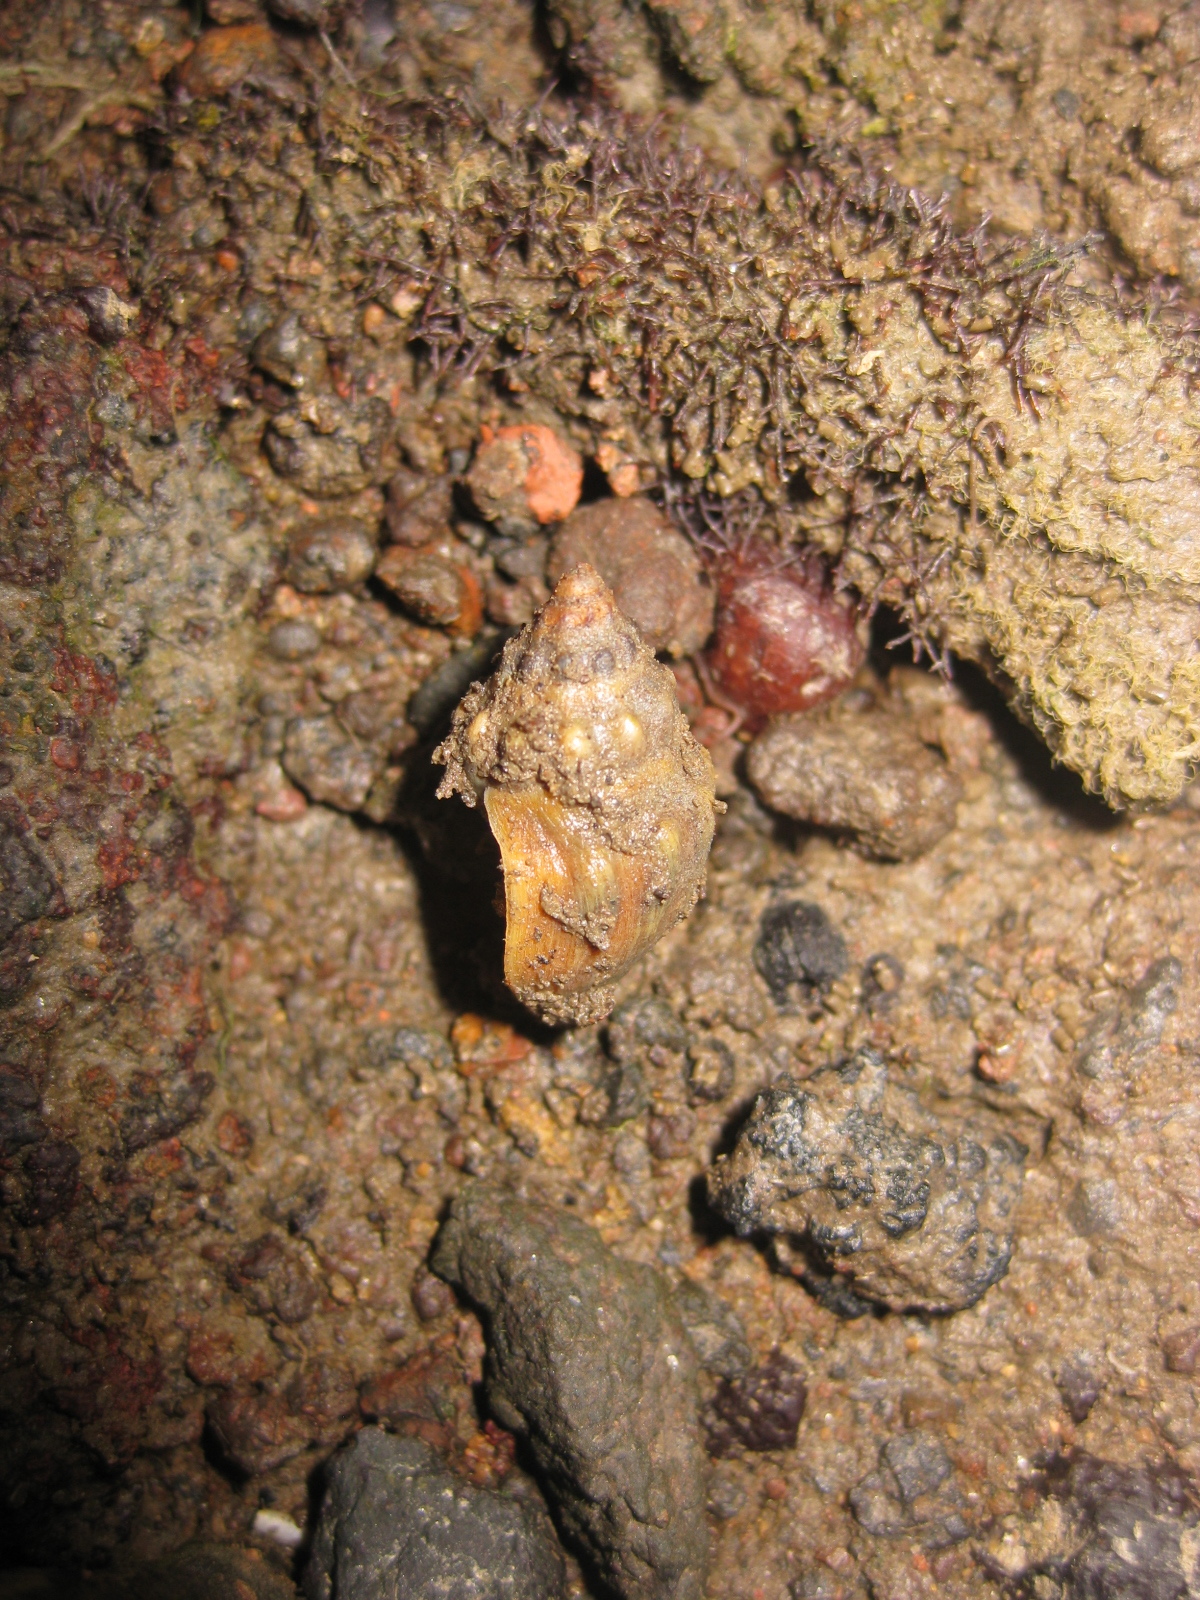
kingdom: Animalia
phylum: Mollusca
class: Gastropoda
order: Neogastropoda
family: Cominellidae
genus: Cominella
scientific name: Cominella glandiformis
